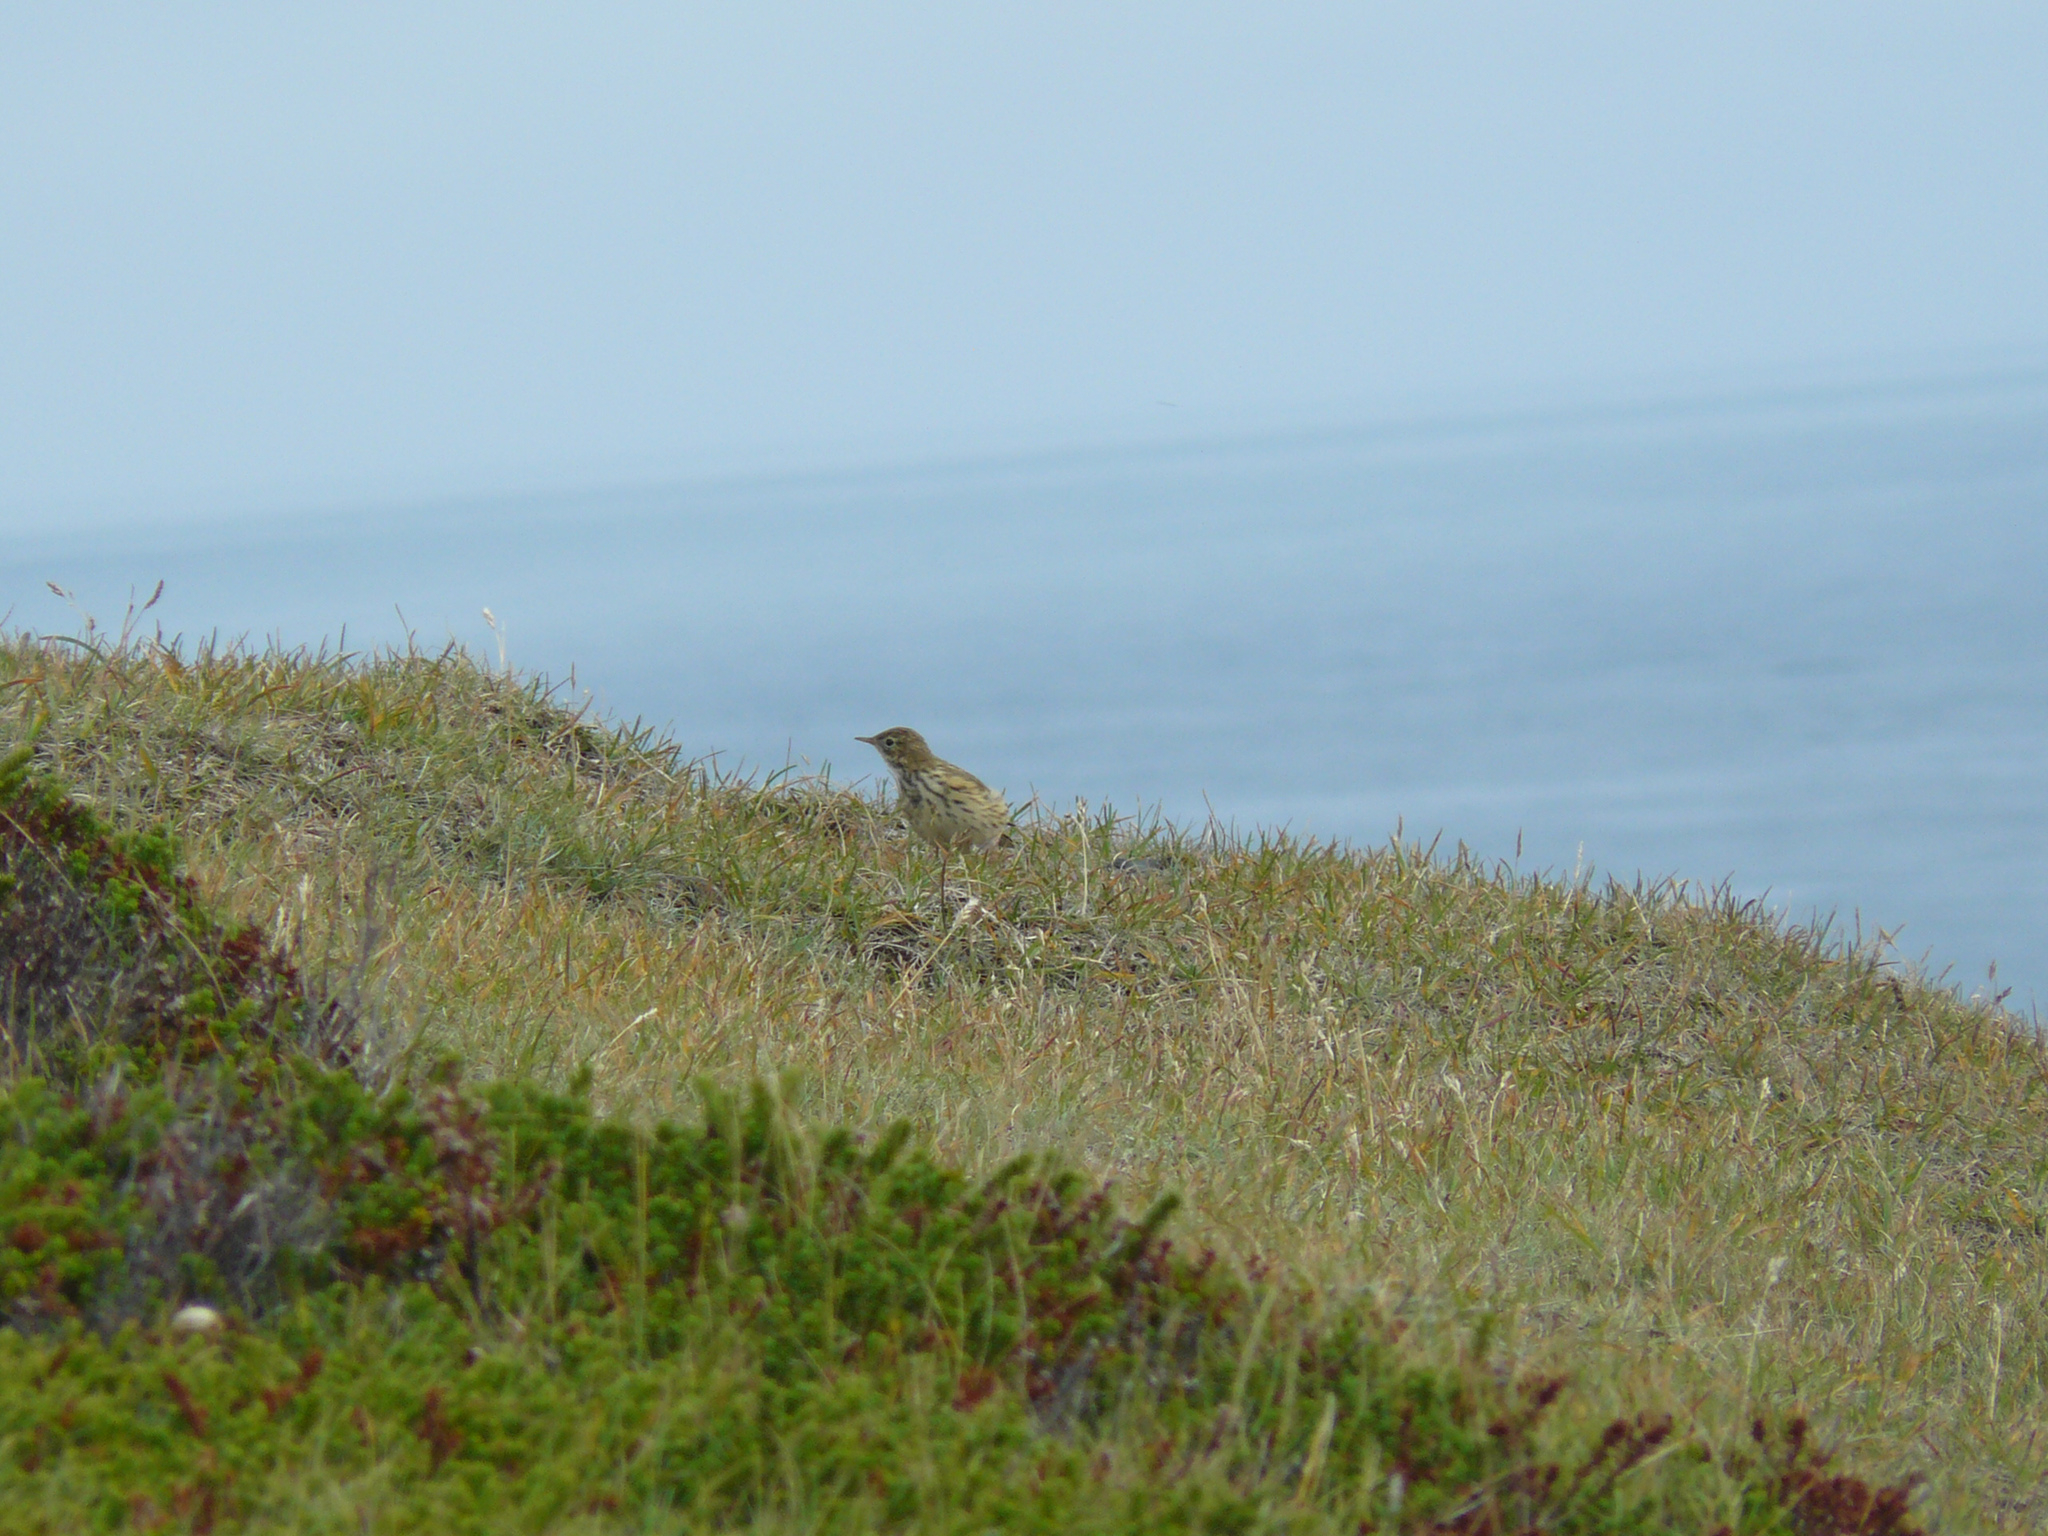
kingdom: Animalia
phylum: Chordata
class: Aves
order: Passeriformes
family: Motacillidae
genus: Anthus
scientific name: Anthus pratensis
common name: Meadow pipit
